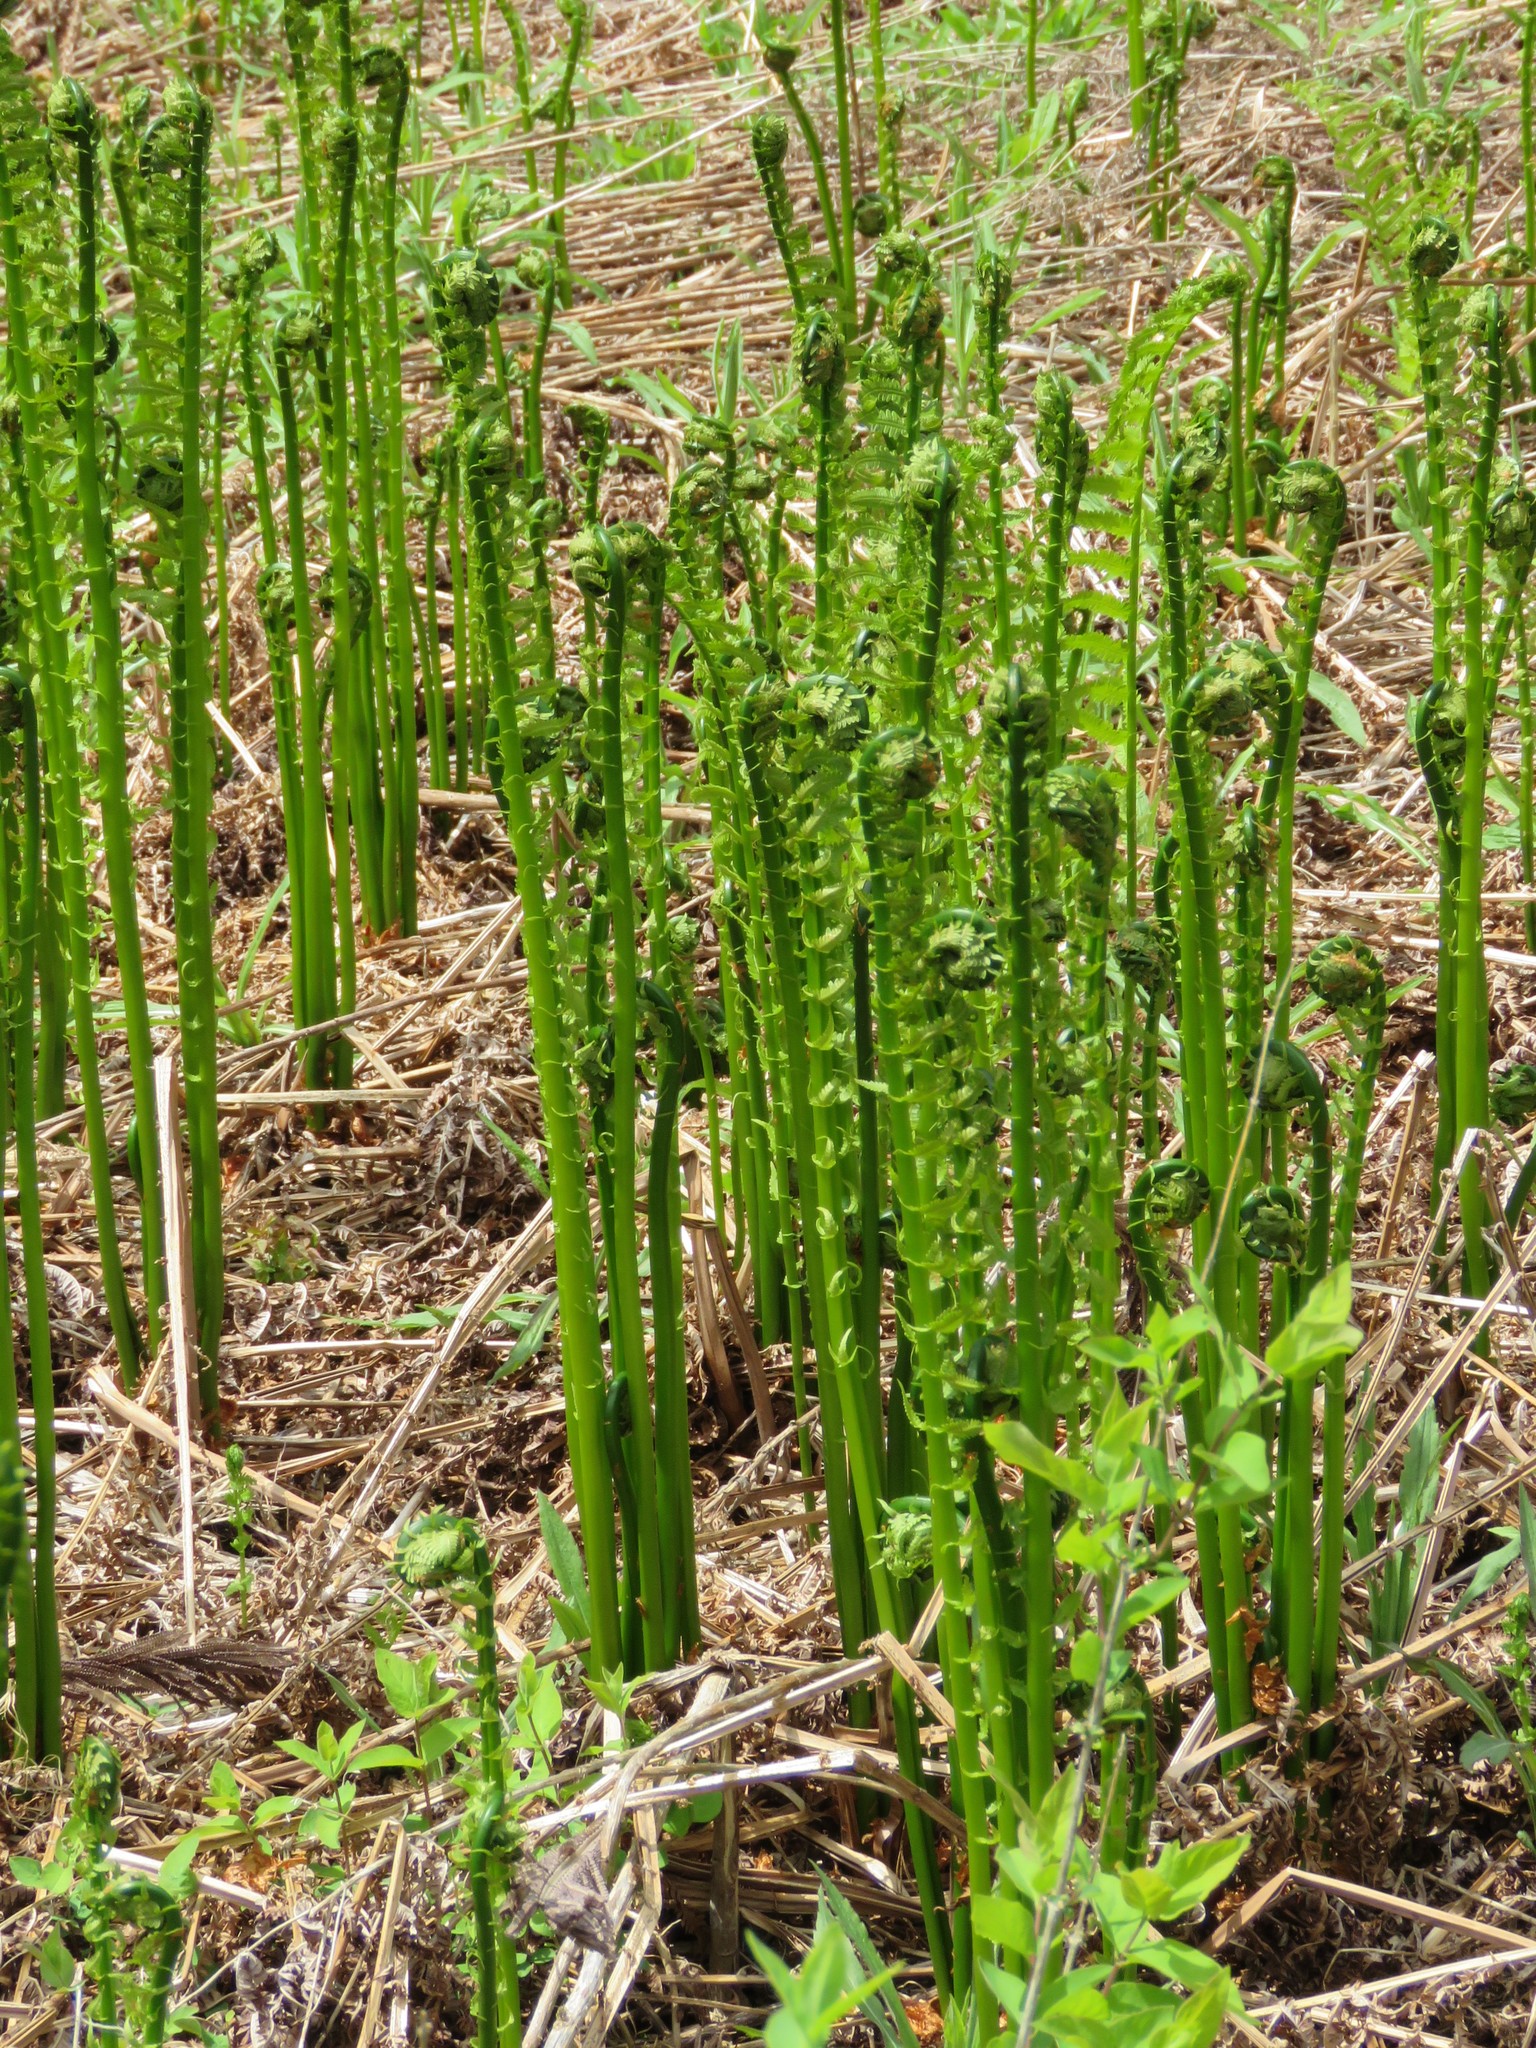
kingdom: Plantae
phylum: Tracheophyta
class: Polypodiopsida
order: Polypodiales
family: Onocleaceae
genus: Matteuccia
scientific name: Matteuccia struthiopteris
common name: Ostrich fern
